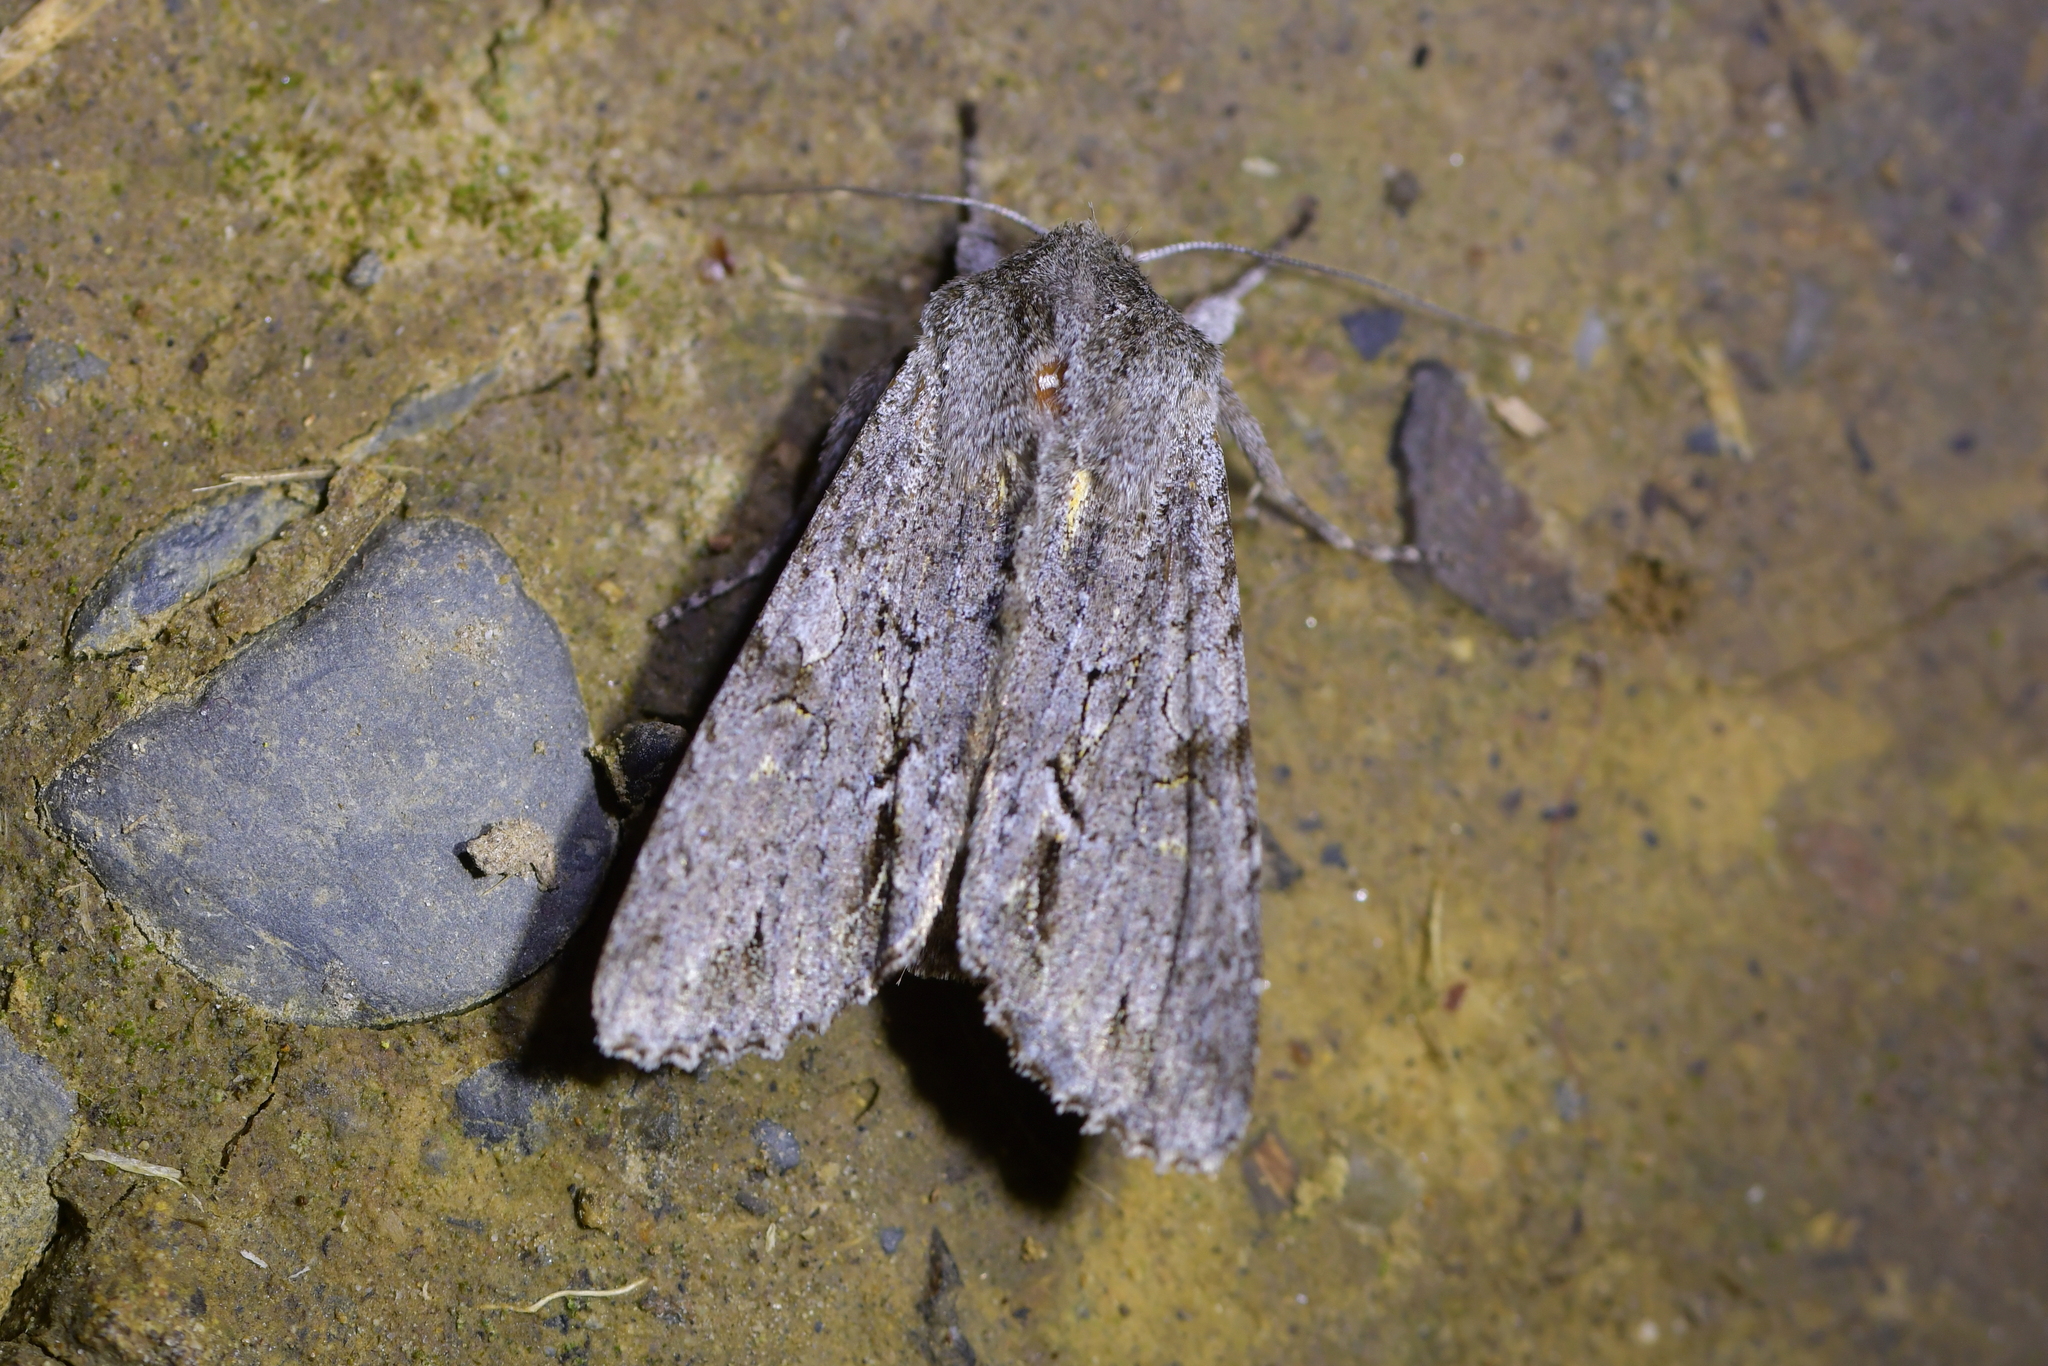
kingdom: Animalia
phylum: Arthropoda
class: Insecta
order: Lepidoptera
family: Noctuidae
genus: Ichneutica
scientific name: Ichneutica
